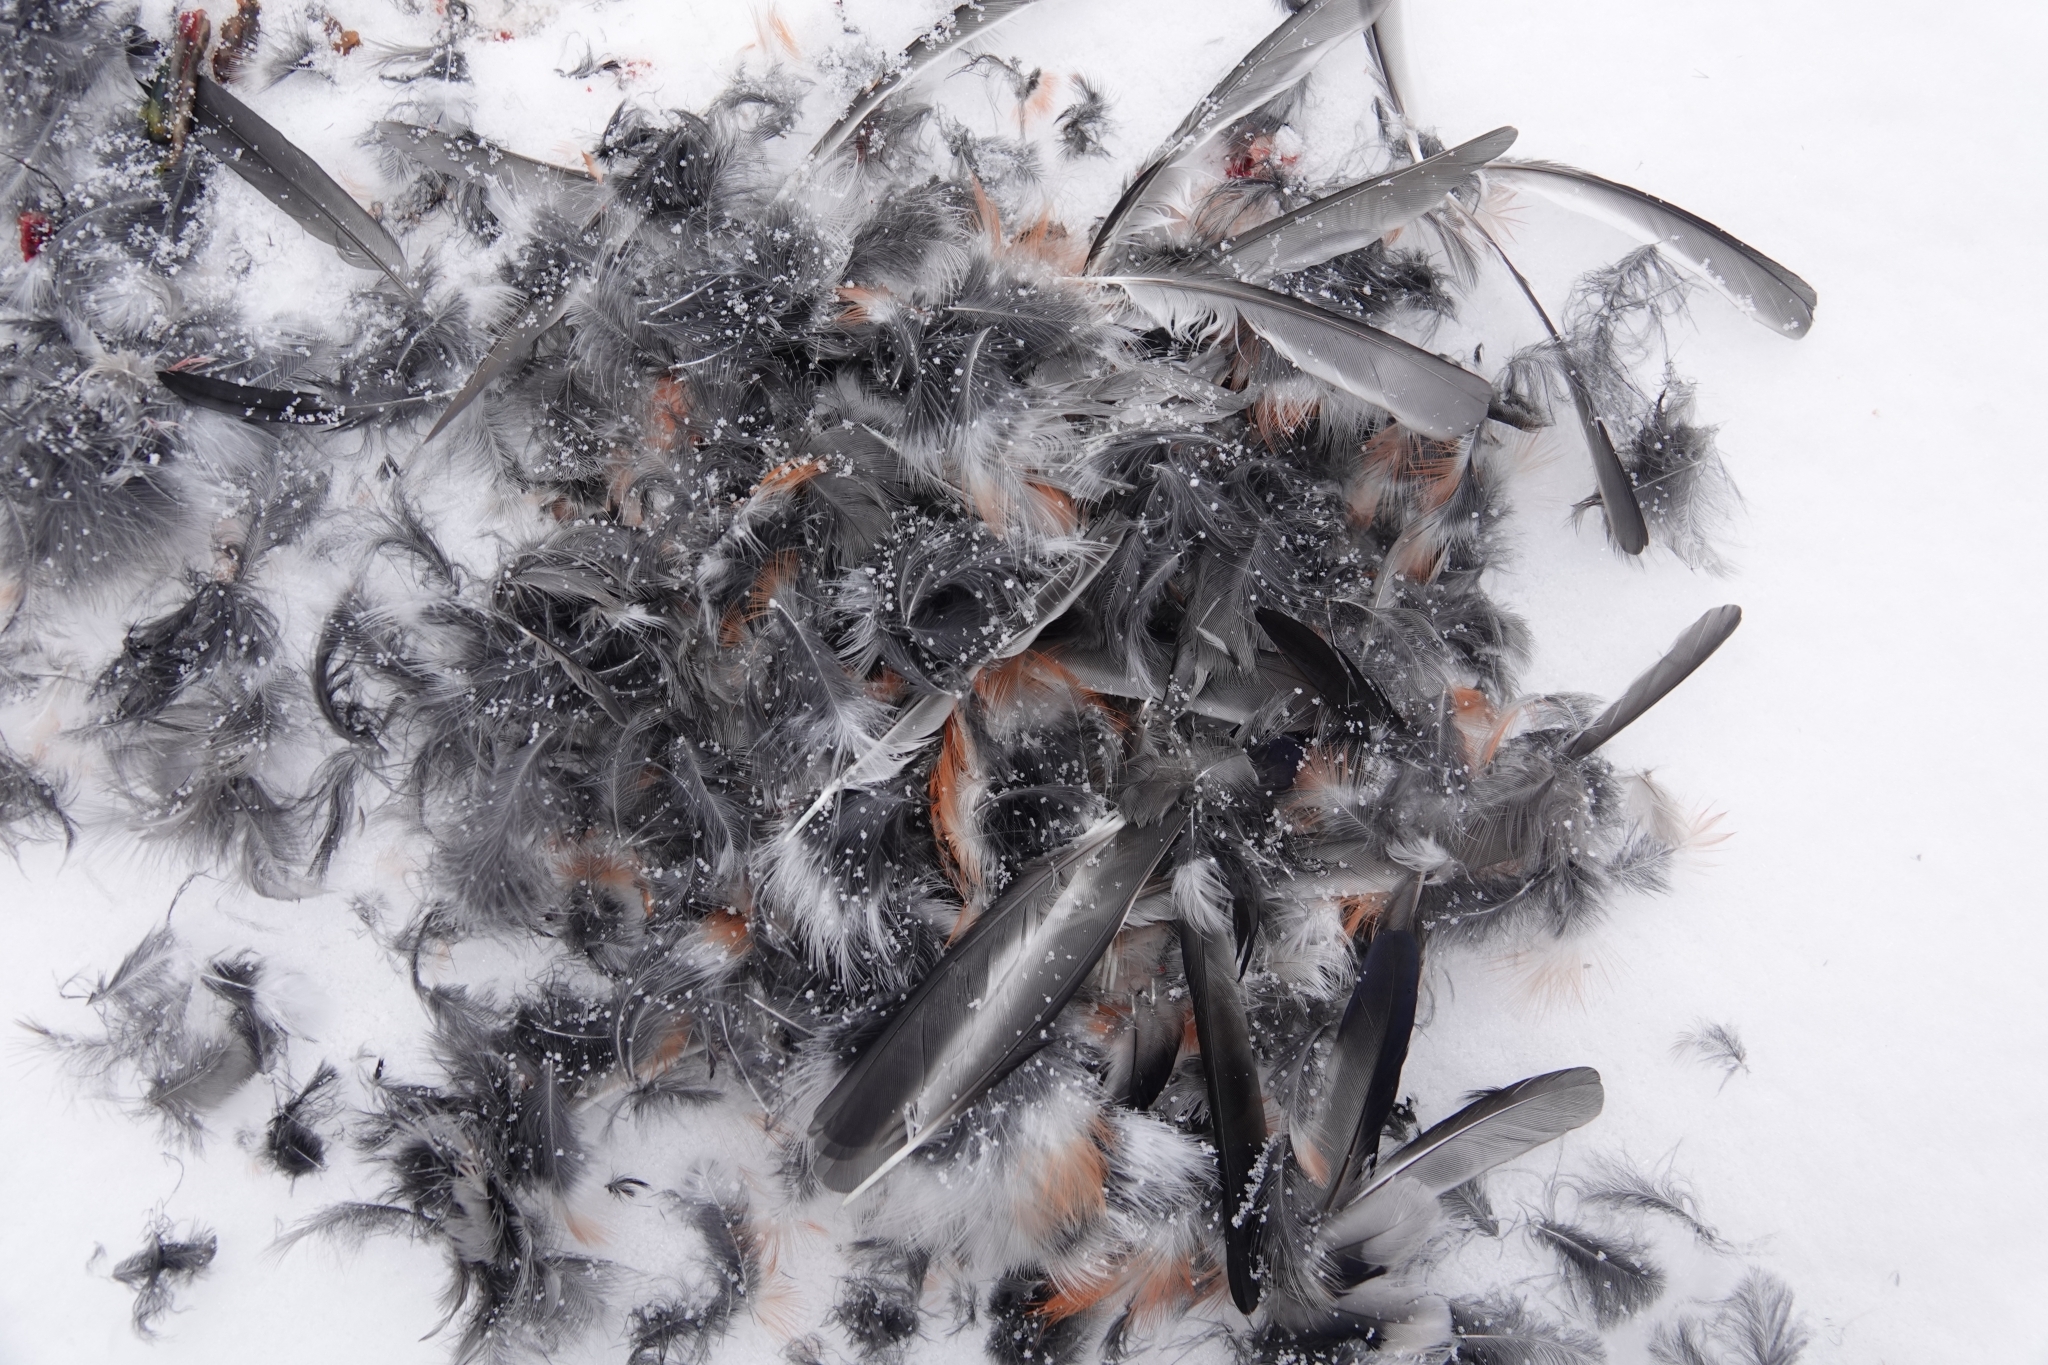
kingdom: Animalia
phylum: Chordata
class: Aves
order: Passeriformes
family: Fringillidae
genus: Pyrrhula
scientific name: Pyrrhula pyrrhula
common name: Eurasian bullfinch
